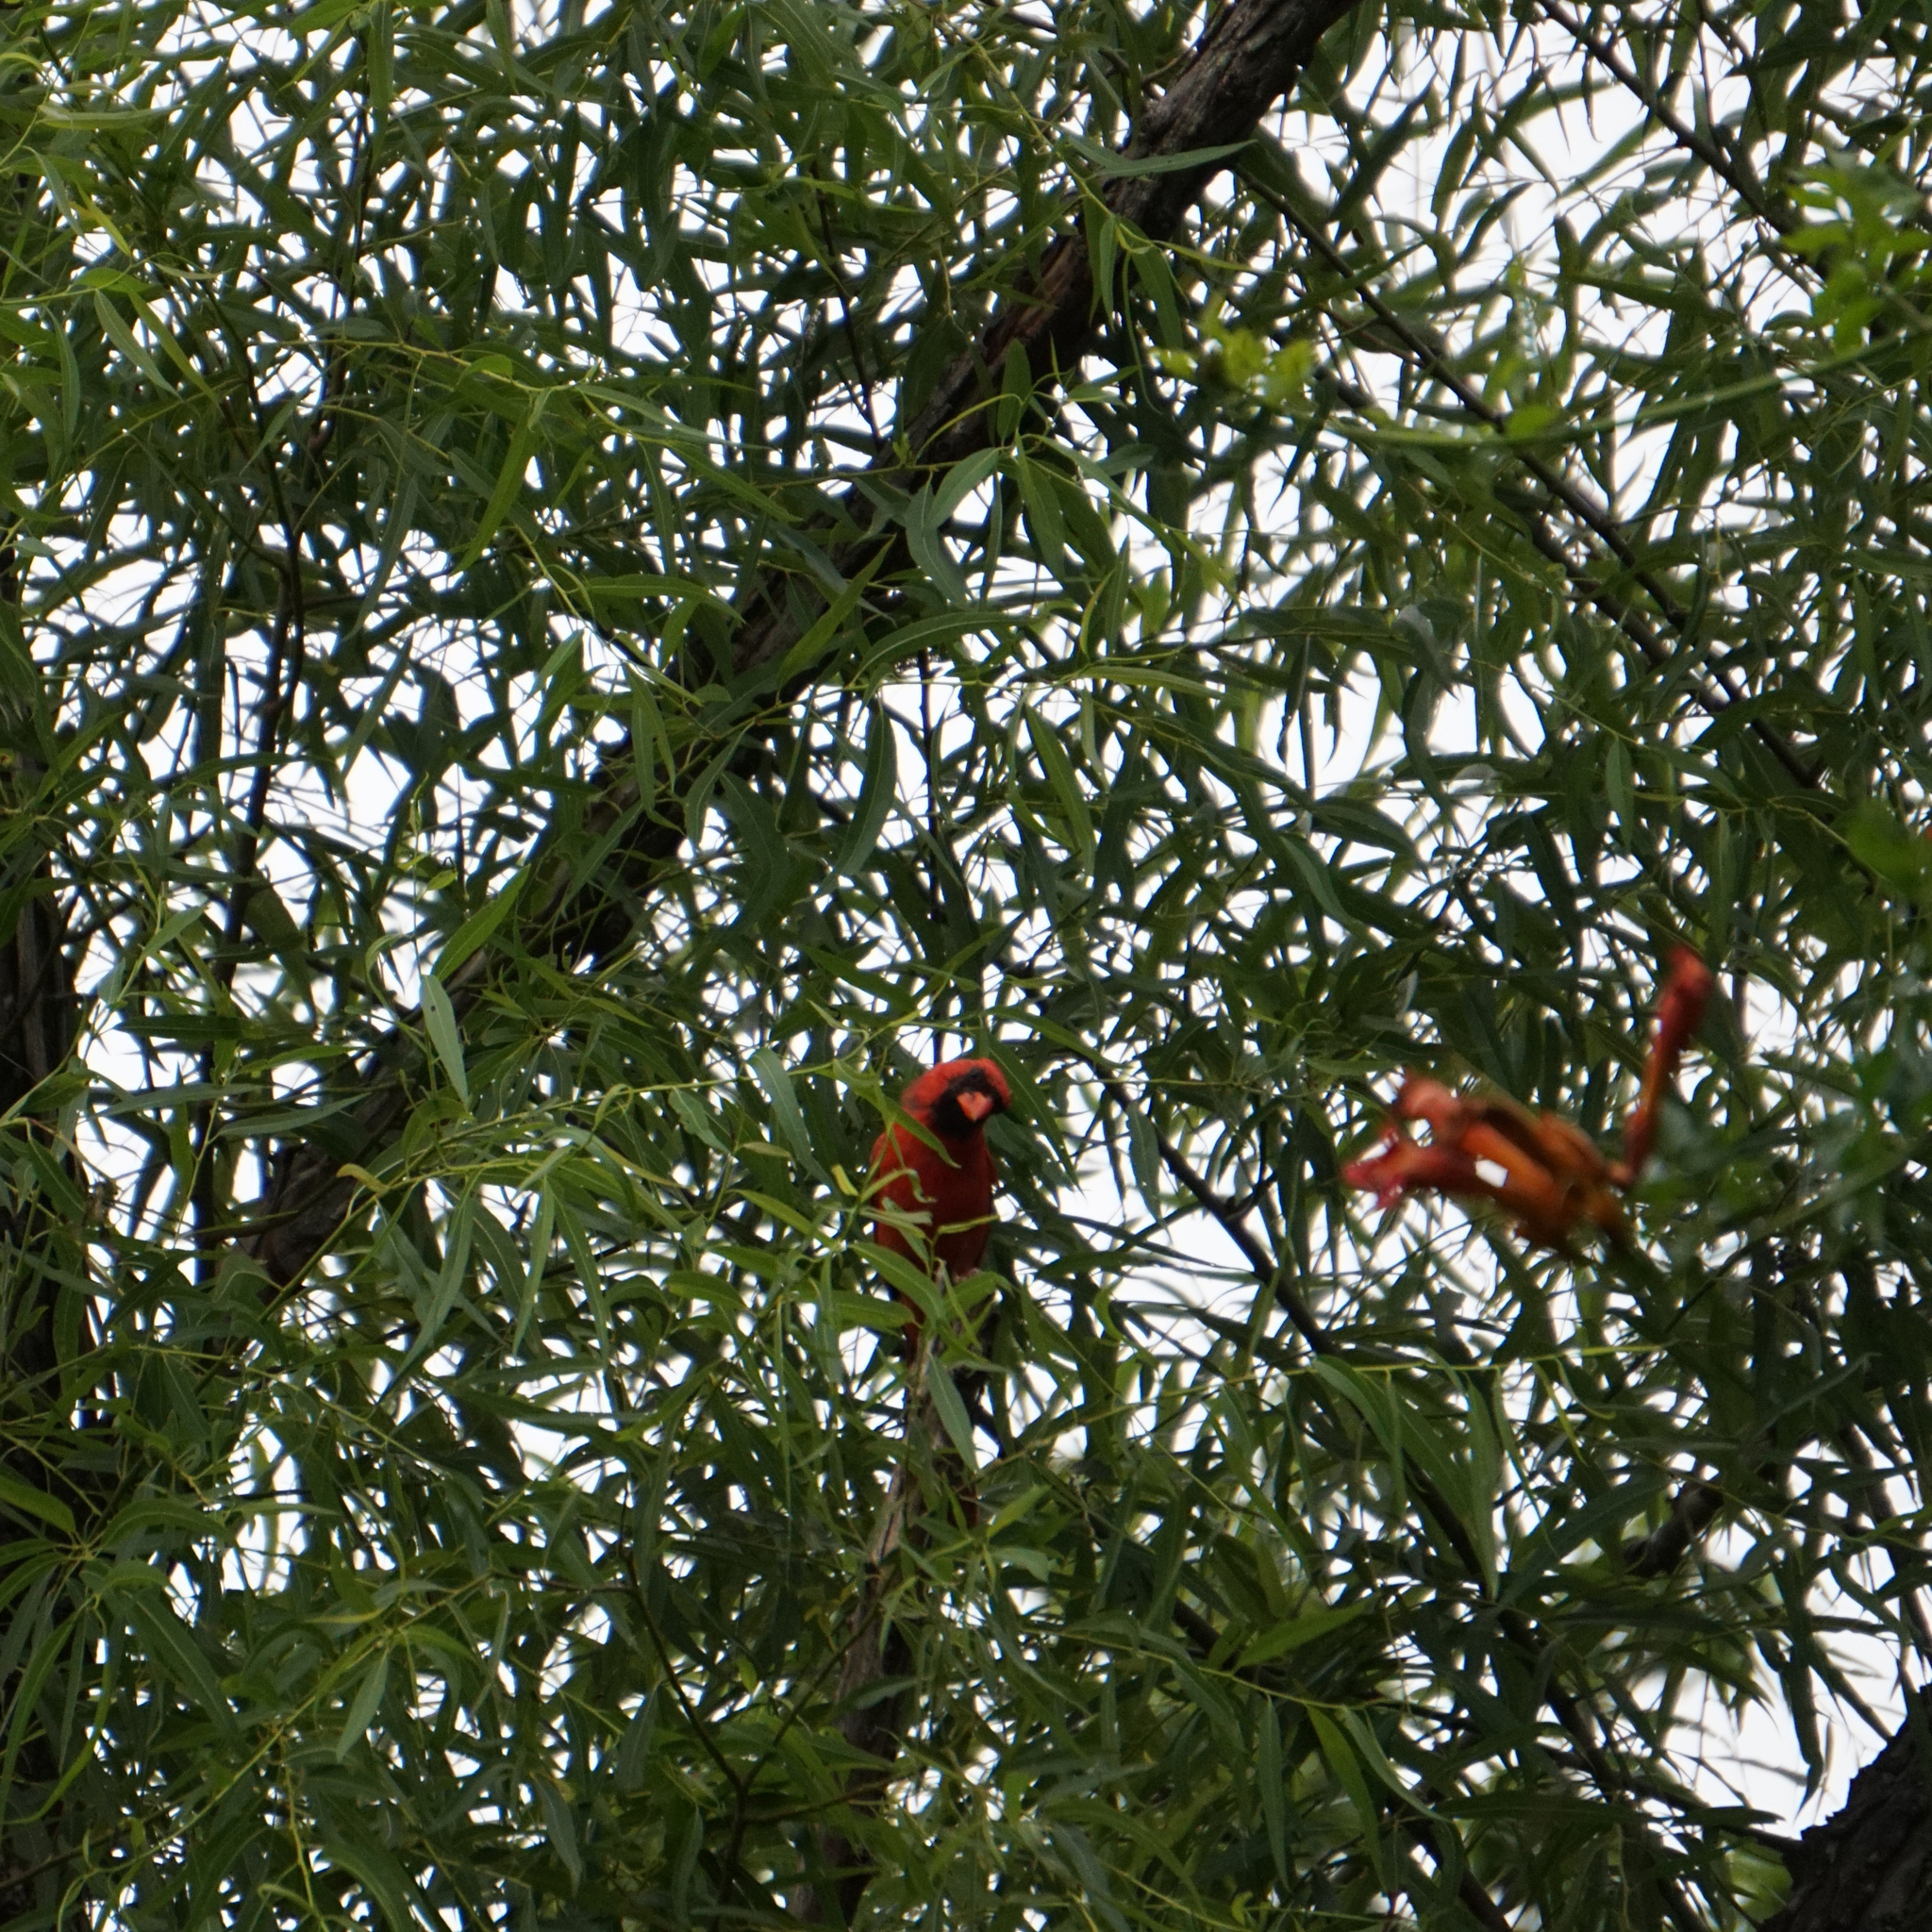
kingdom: Animalia
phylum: Chordata
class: Aves
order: Passeriformes
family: Cardinalidae
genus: Cardinalis
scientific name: Cardinalis cardinalis
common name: Northern cardinal
